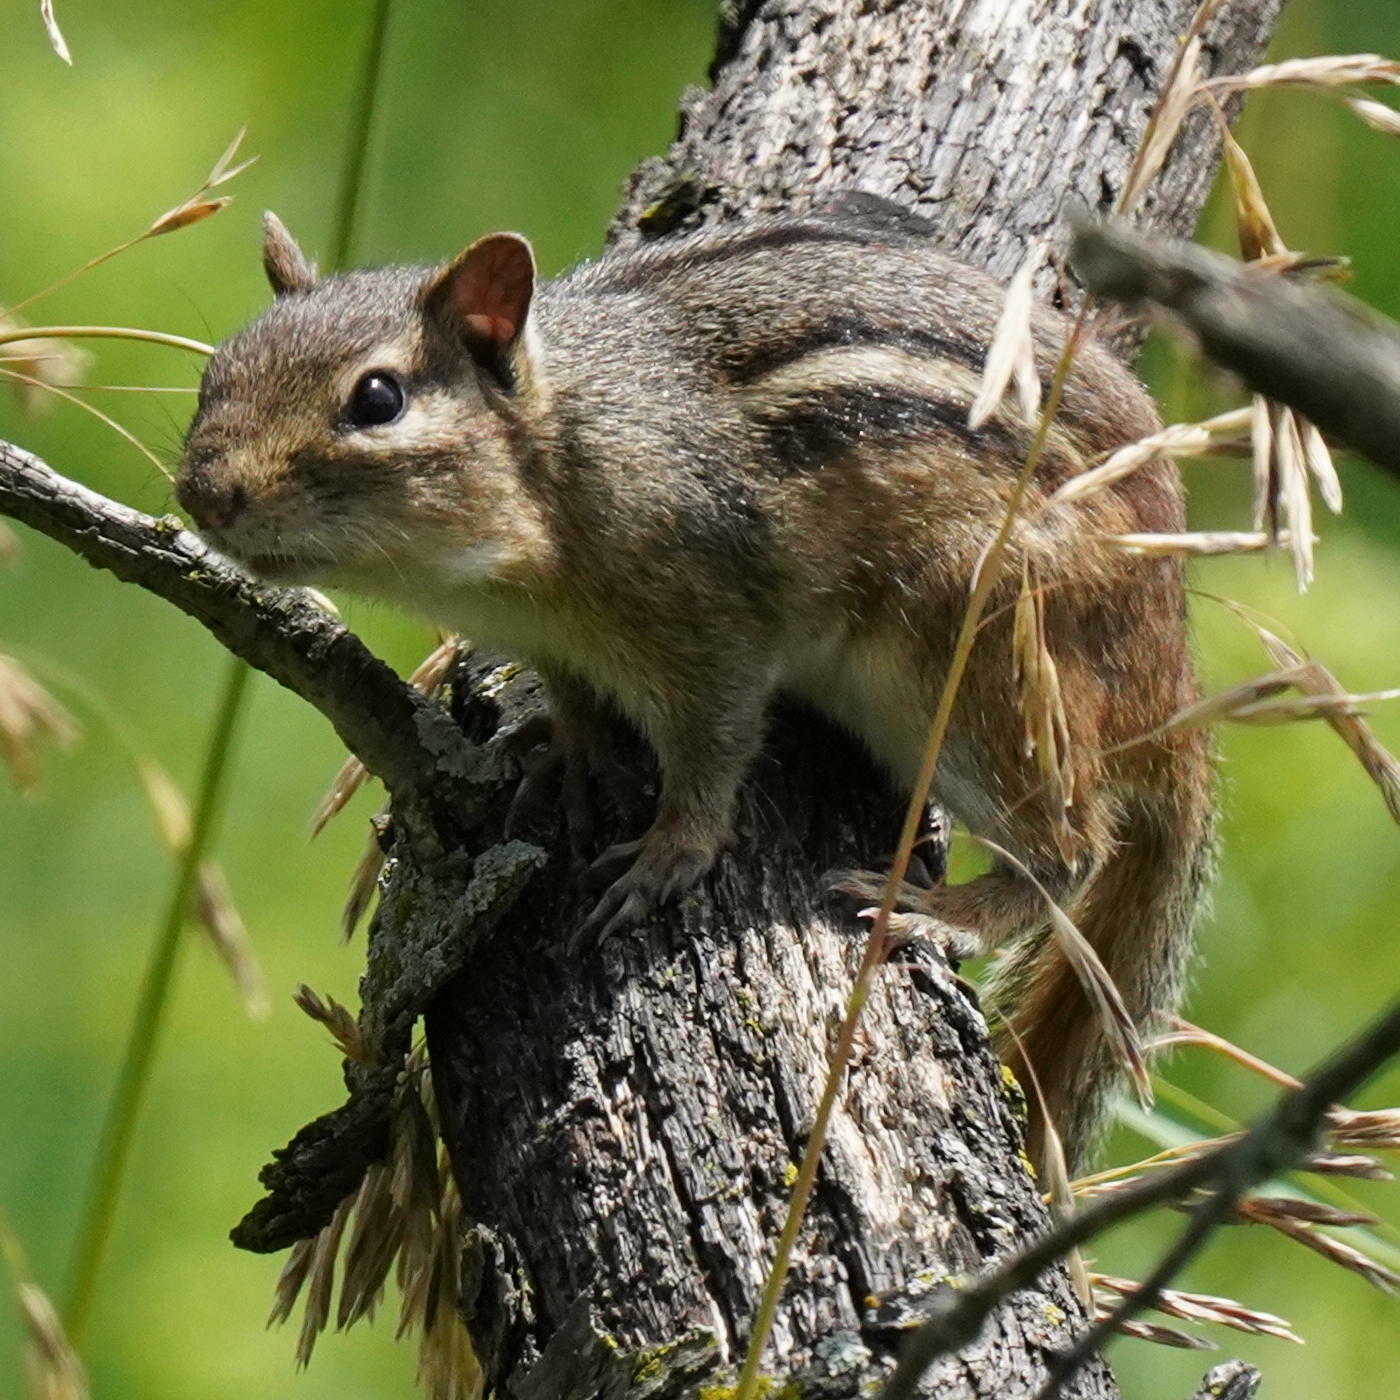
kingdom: Animalia
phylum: Chordata
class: Mammalia
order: Rodentia
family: Sciuridae
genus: Tamias
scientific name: Tamias striatus
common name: Eastern chipmunk
